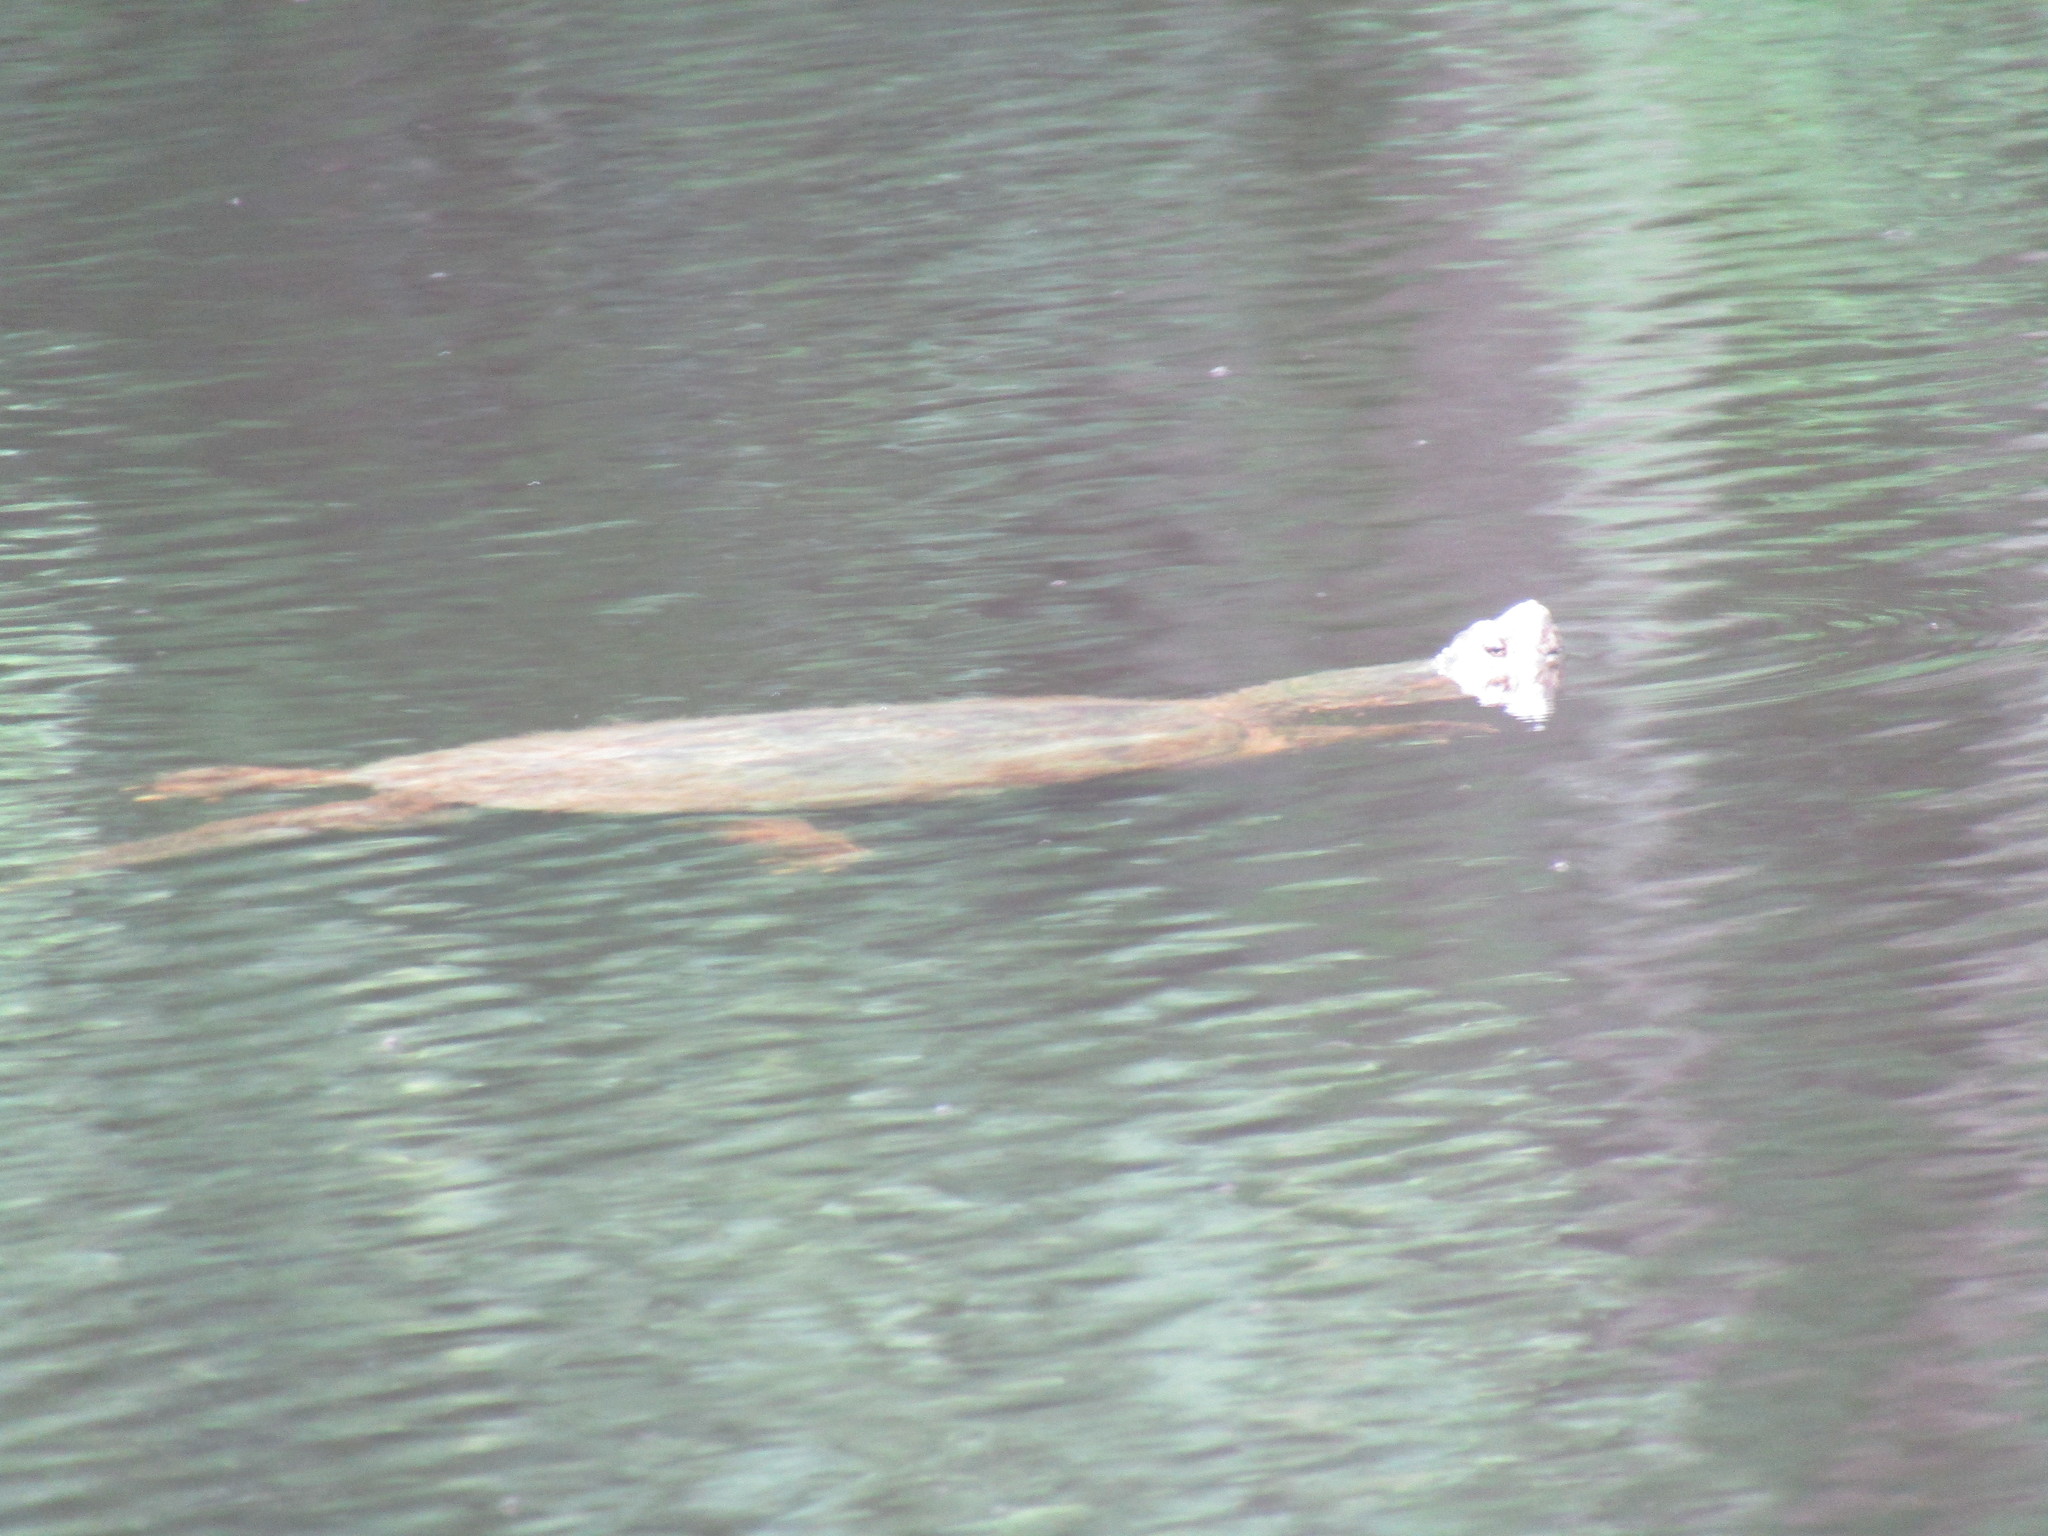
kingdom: Animalia
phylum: Chordata
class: Testudines
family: Chelydridae
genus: Chelydra
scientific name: Chelydra serpentina
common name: Common snapping turtle
